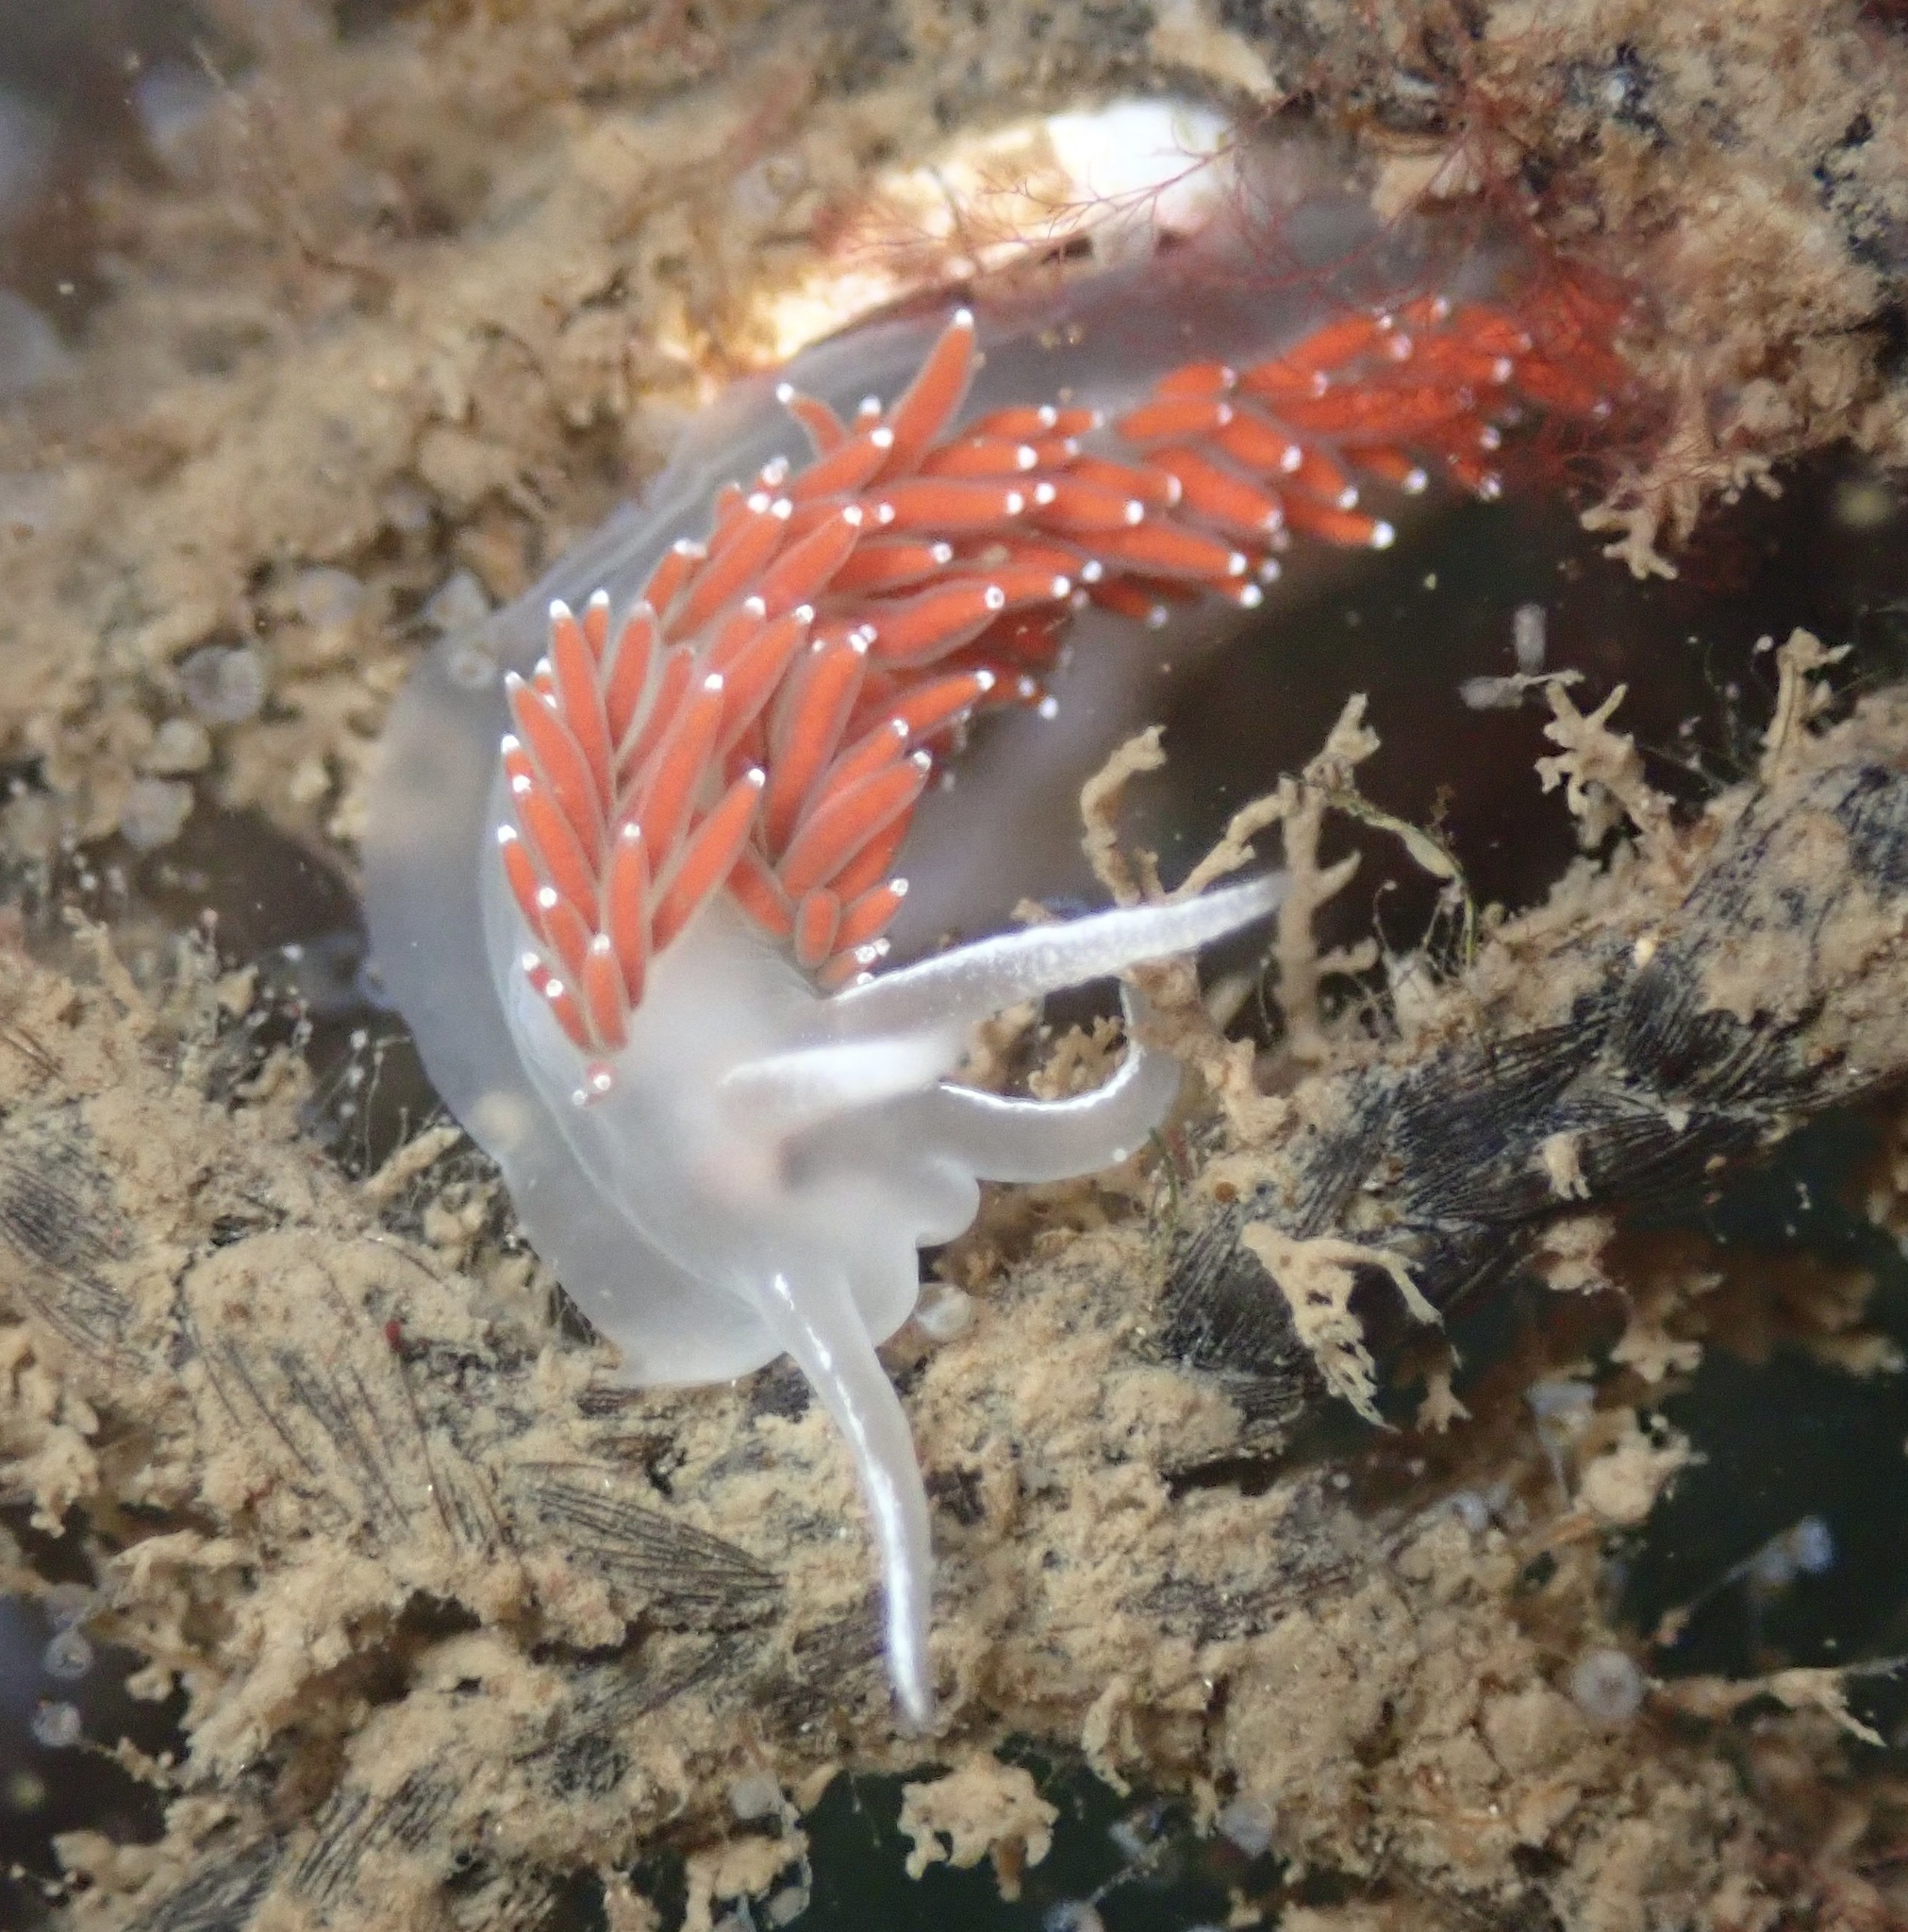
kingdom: Animalia
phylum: Mollusca
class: Gastropoda
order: Nudibranchia
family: Coryphellidae
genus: Coryphella
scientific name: Coryphella verrucosa
